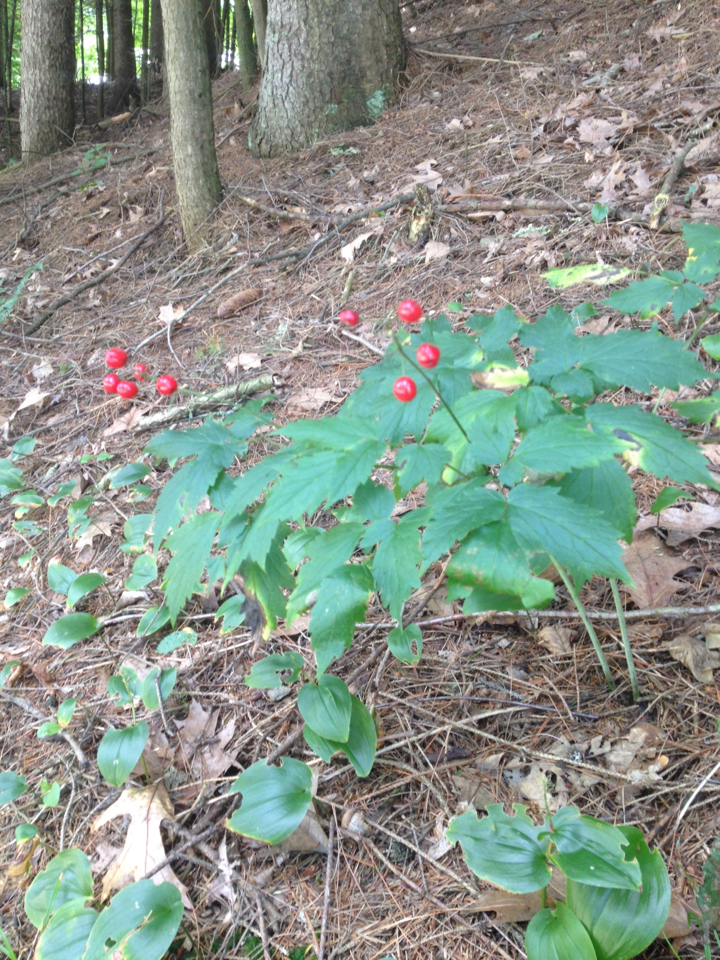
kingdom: Plantae
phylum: Tracheophyta
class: Magnoliopsida
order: Ranunculales
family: Ranunculaceae
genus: Actaea
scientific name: Actaea rubra
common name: Red baneberry
